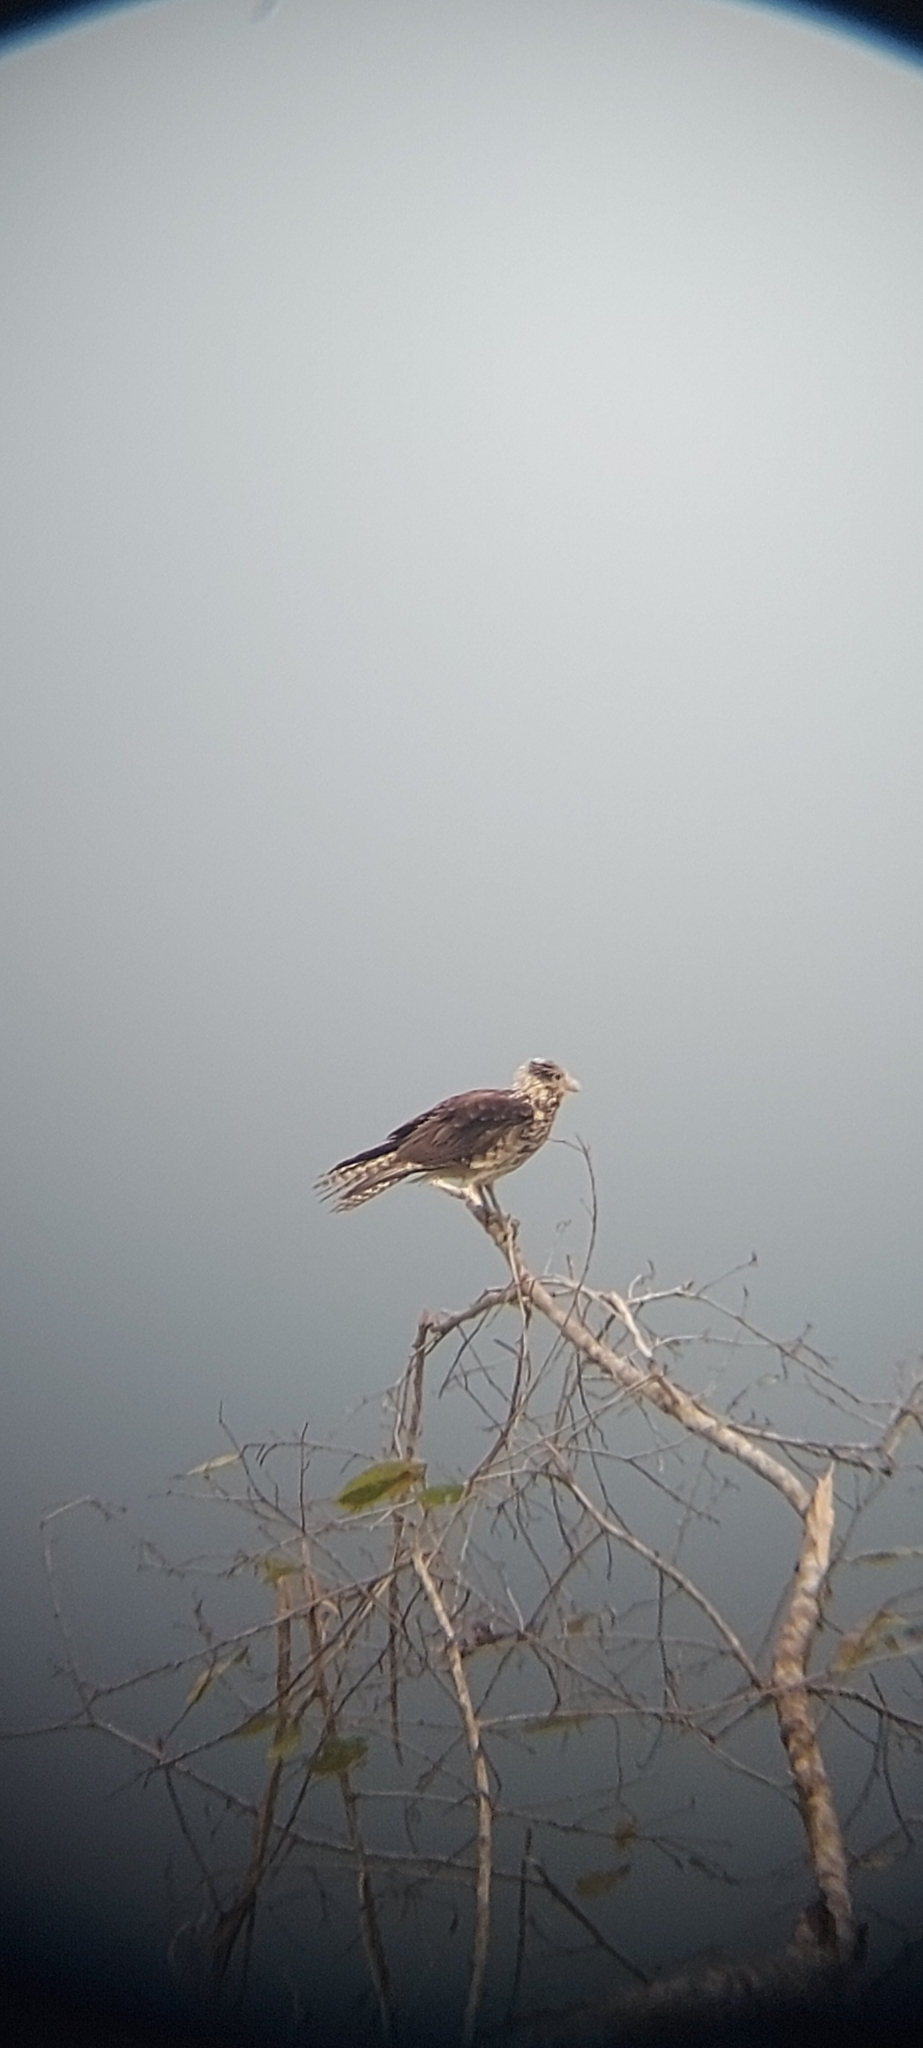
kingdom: Animalia
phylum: Chordata
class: Aves
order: Falconiformes
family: Falconidae
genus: Daptrius
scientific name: Daptrius
